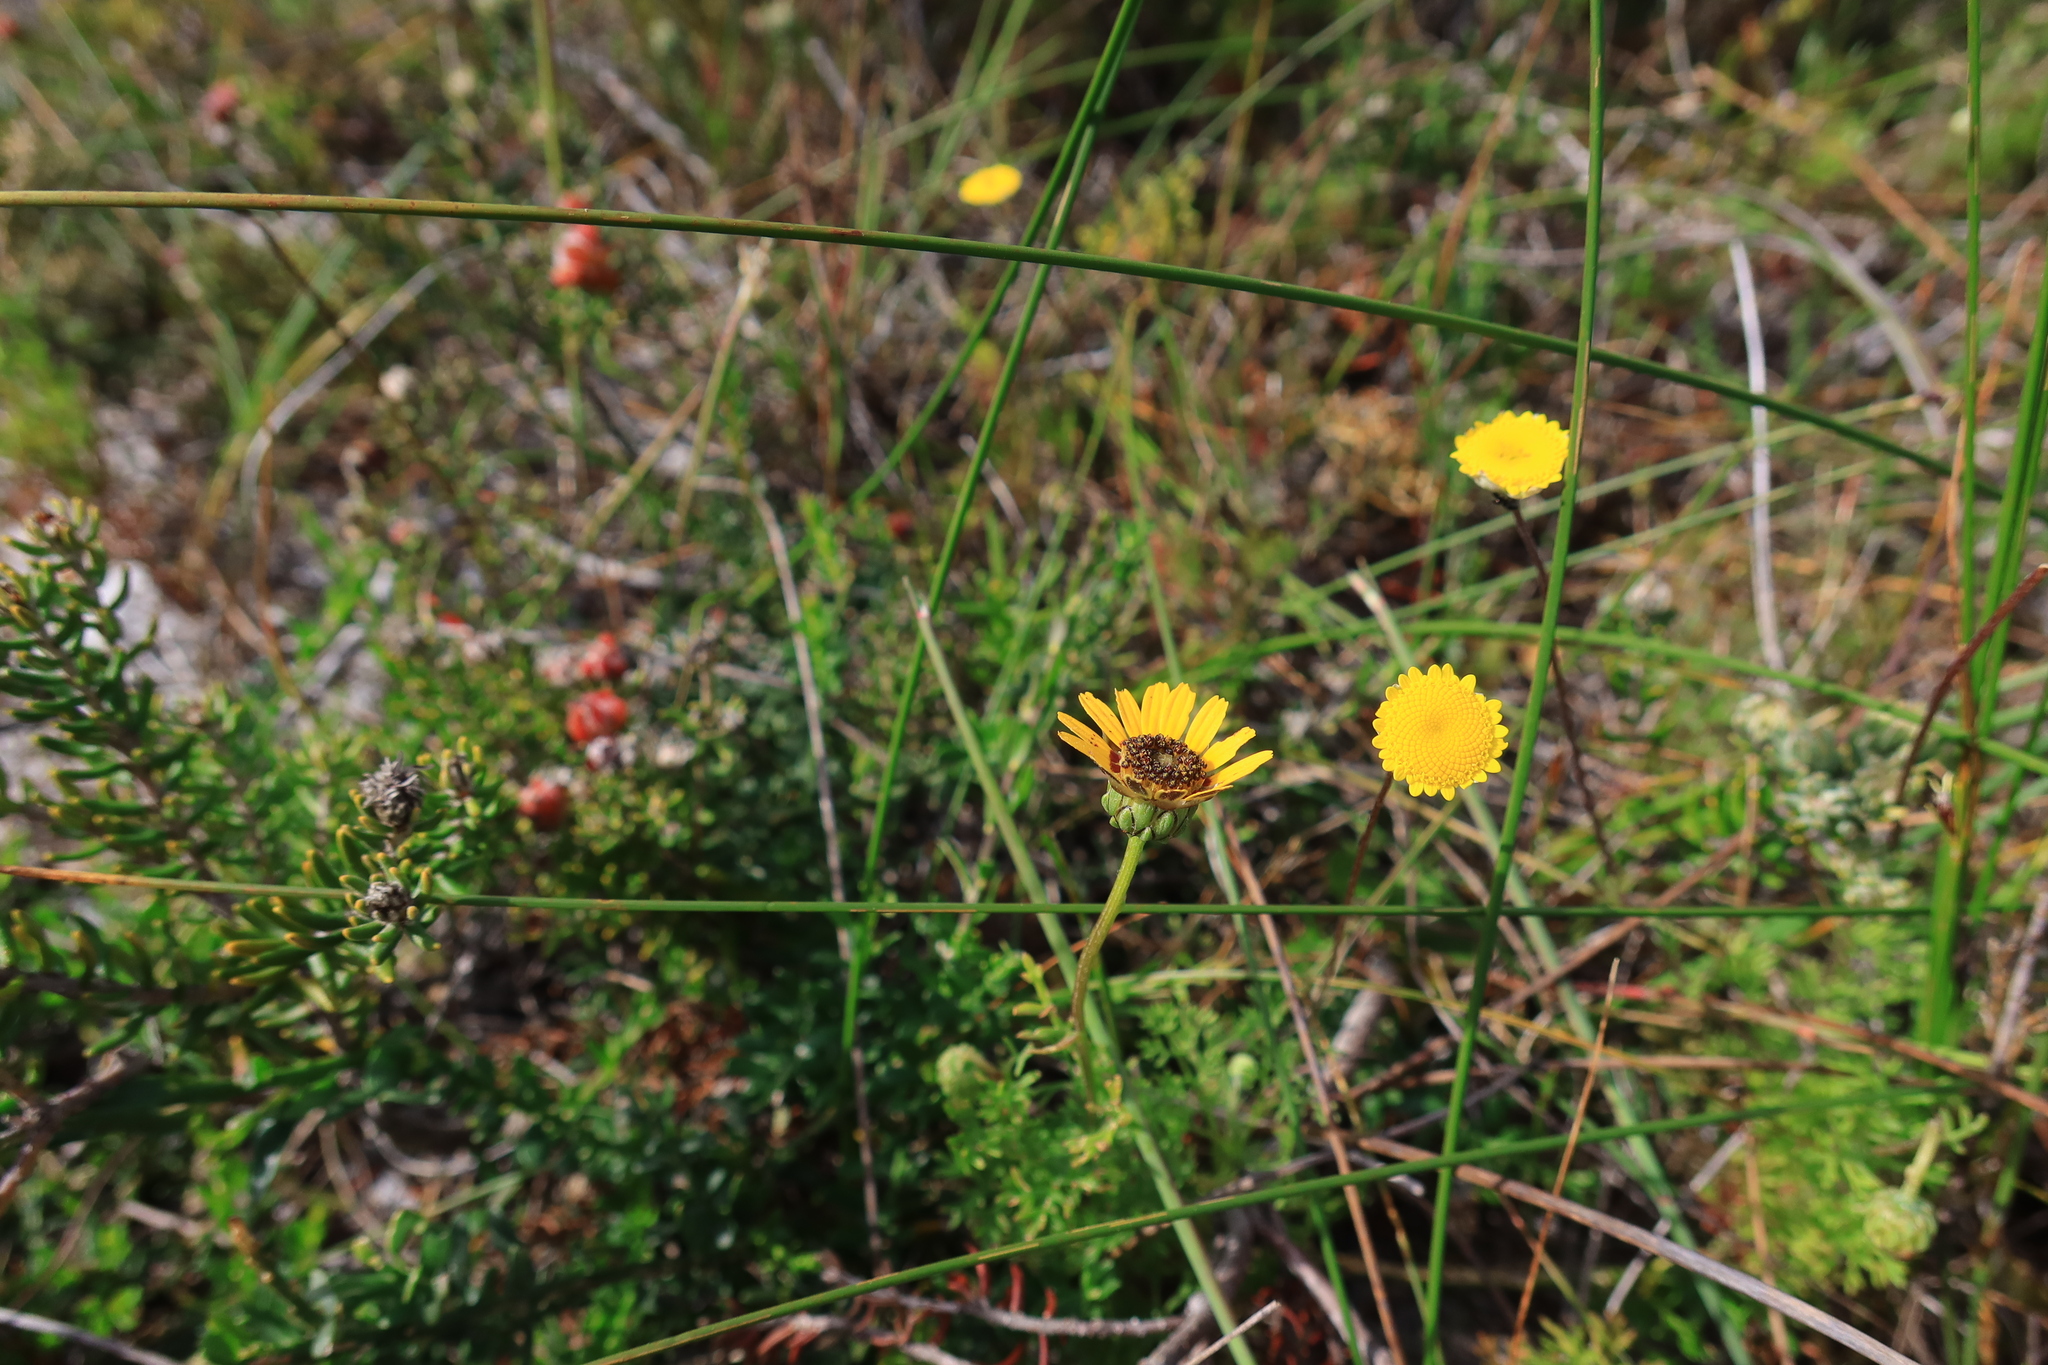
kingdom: Plantae
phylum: Tracheophyta
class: Magnoliopsida
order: Asterales
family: Asteraceae
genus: Ursinia
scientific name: Ursinia anthemoides
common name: Ursinia
